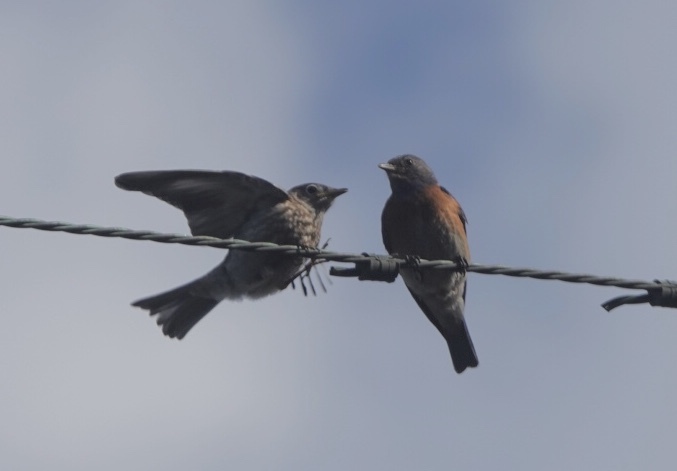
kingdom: Animalia
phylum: Chordata
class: Aves
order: Passeriformes
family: Turdidae
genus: Sialia
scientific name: Sialia mexicana
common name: Western bluebird
